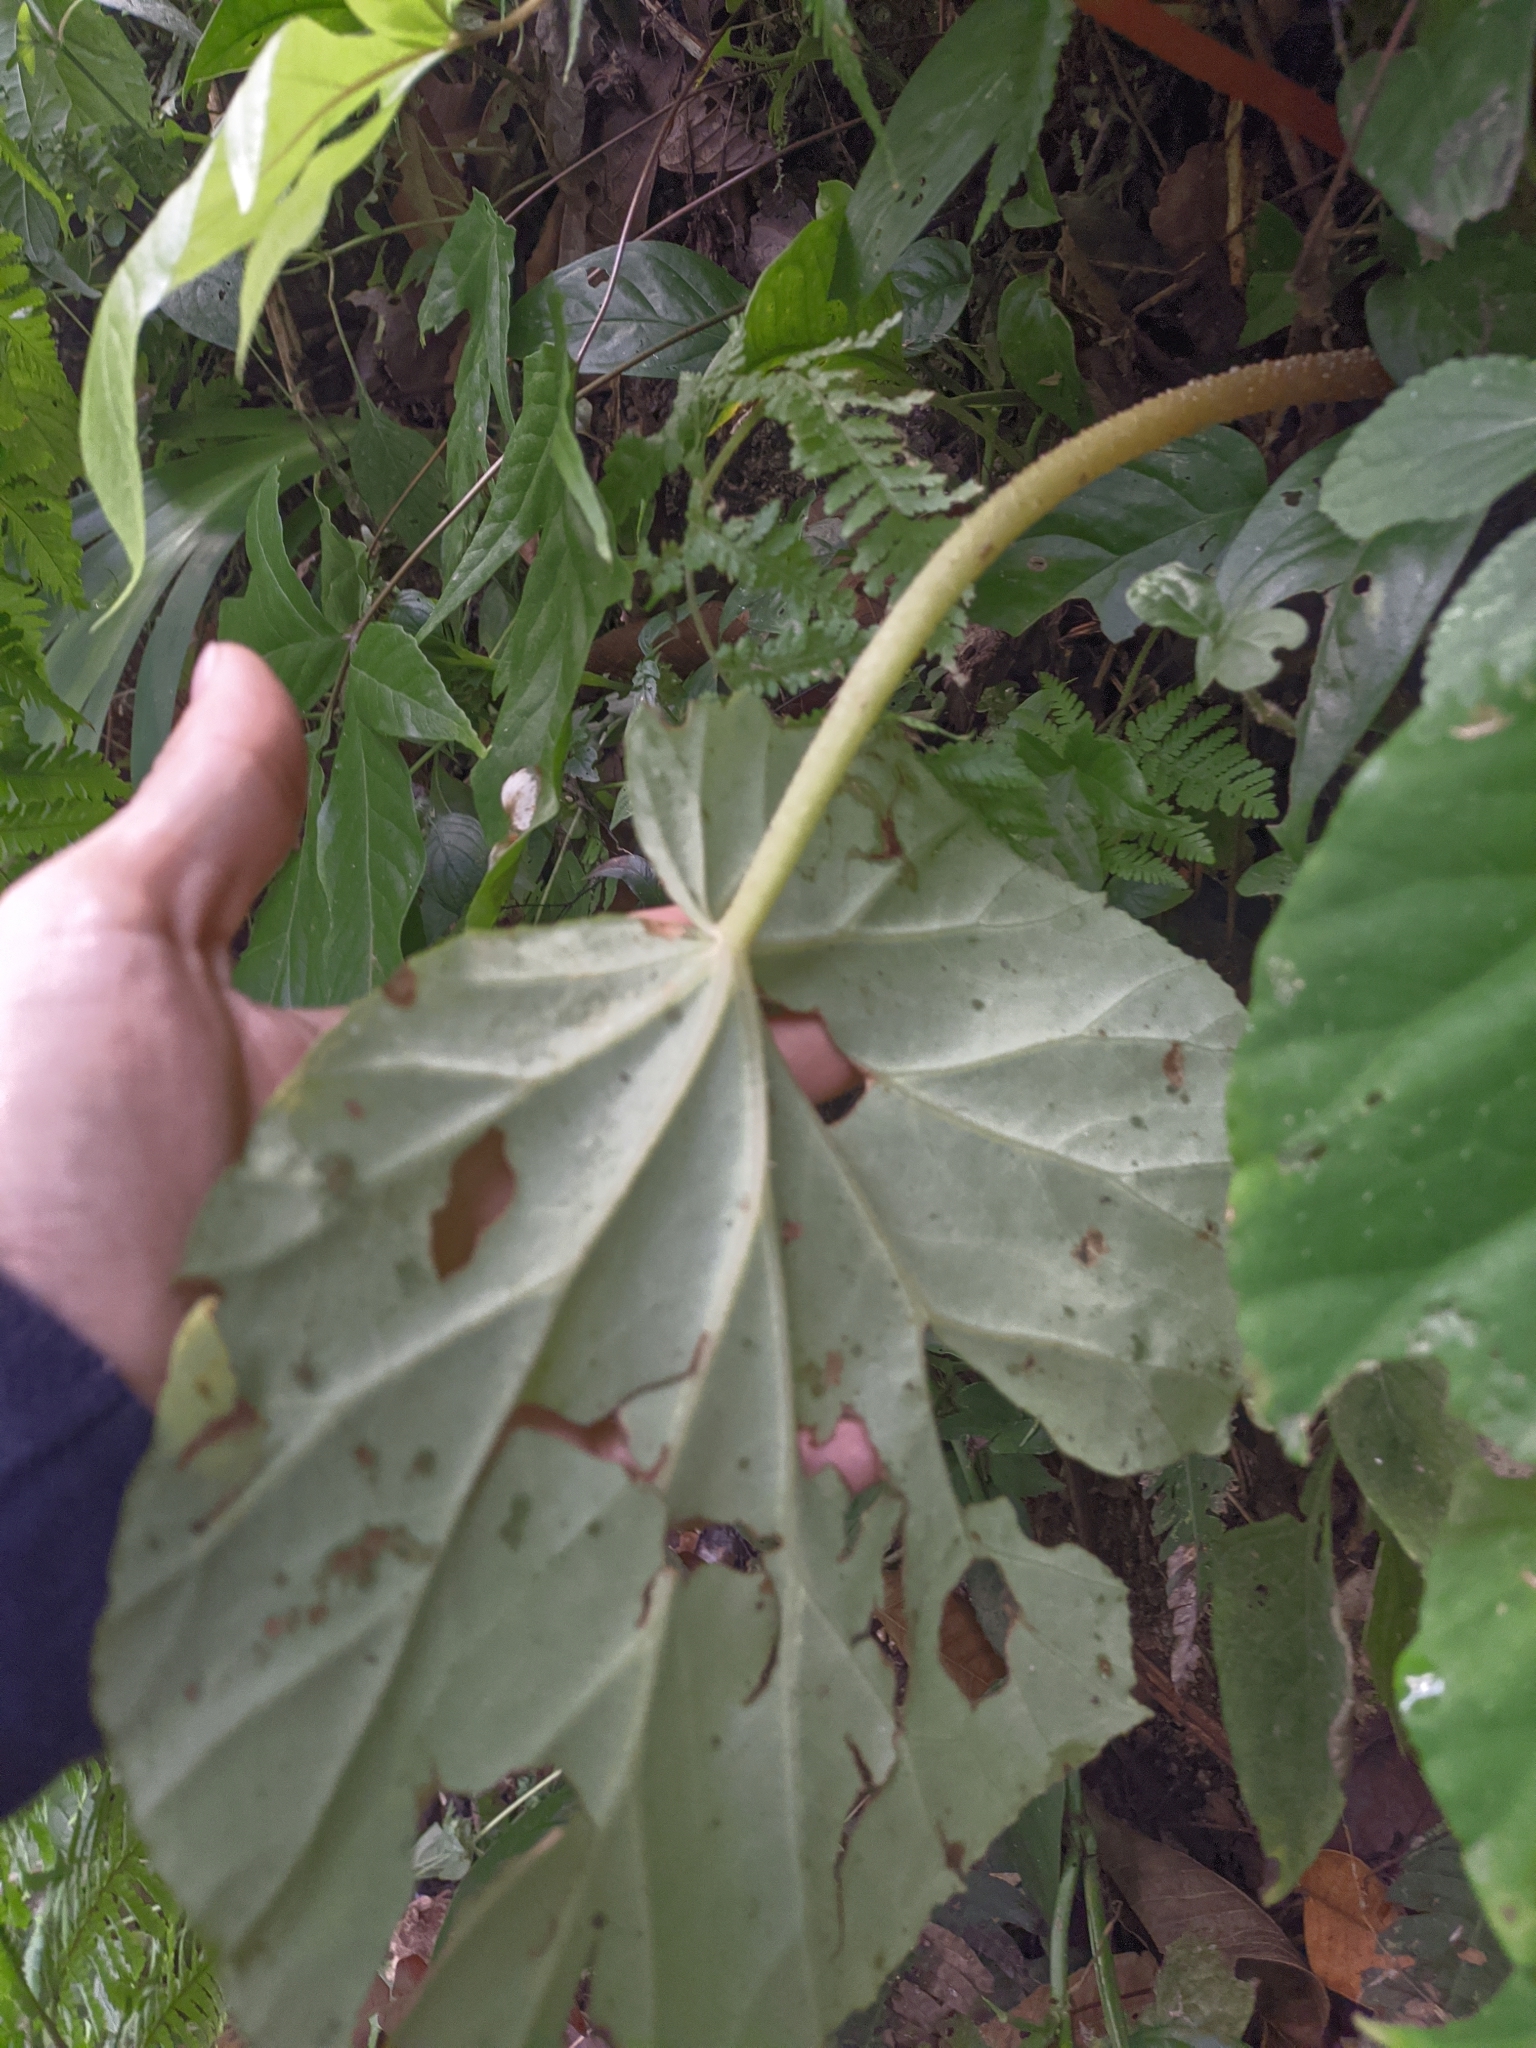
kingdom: Plantae
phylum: Tracheophyta
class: Magnoliopsida
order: Cucurbitales
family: Begoniaceae
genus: Begonia
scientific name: Begonia urophylla
